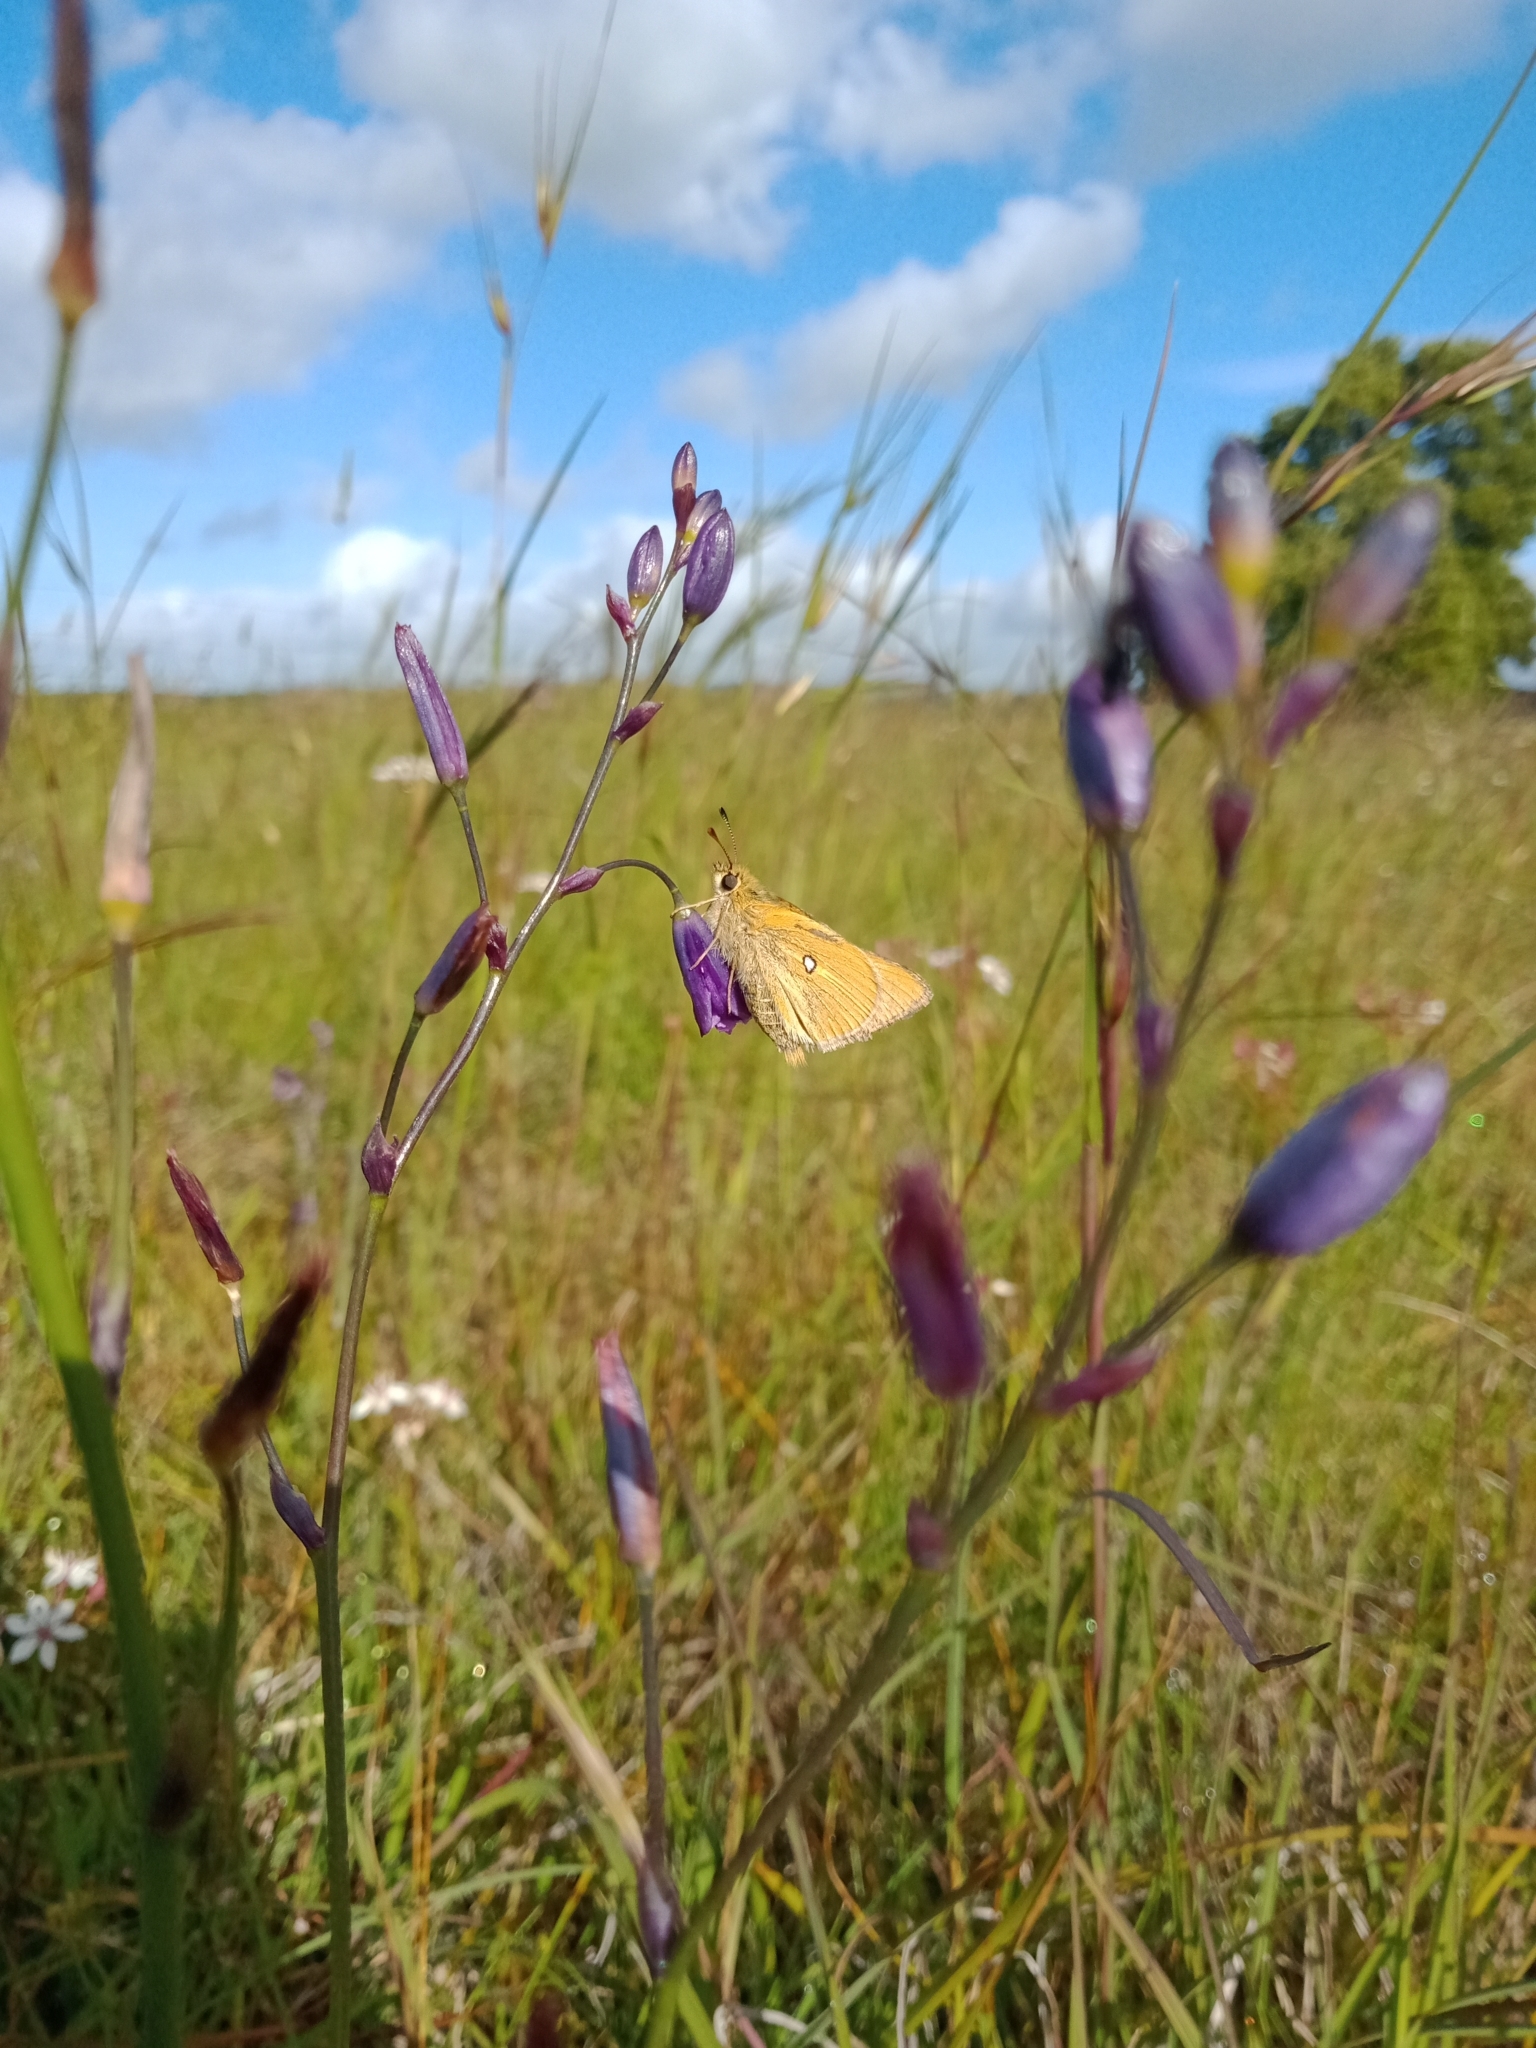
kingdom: Animalia
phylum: Arthropoda
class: Insecta
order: Lepidoptera
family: Hesperiidae
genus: Trapezites
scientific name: Trapezites lutea
